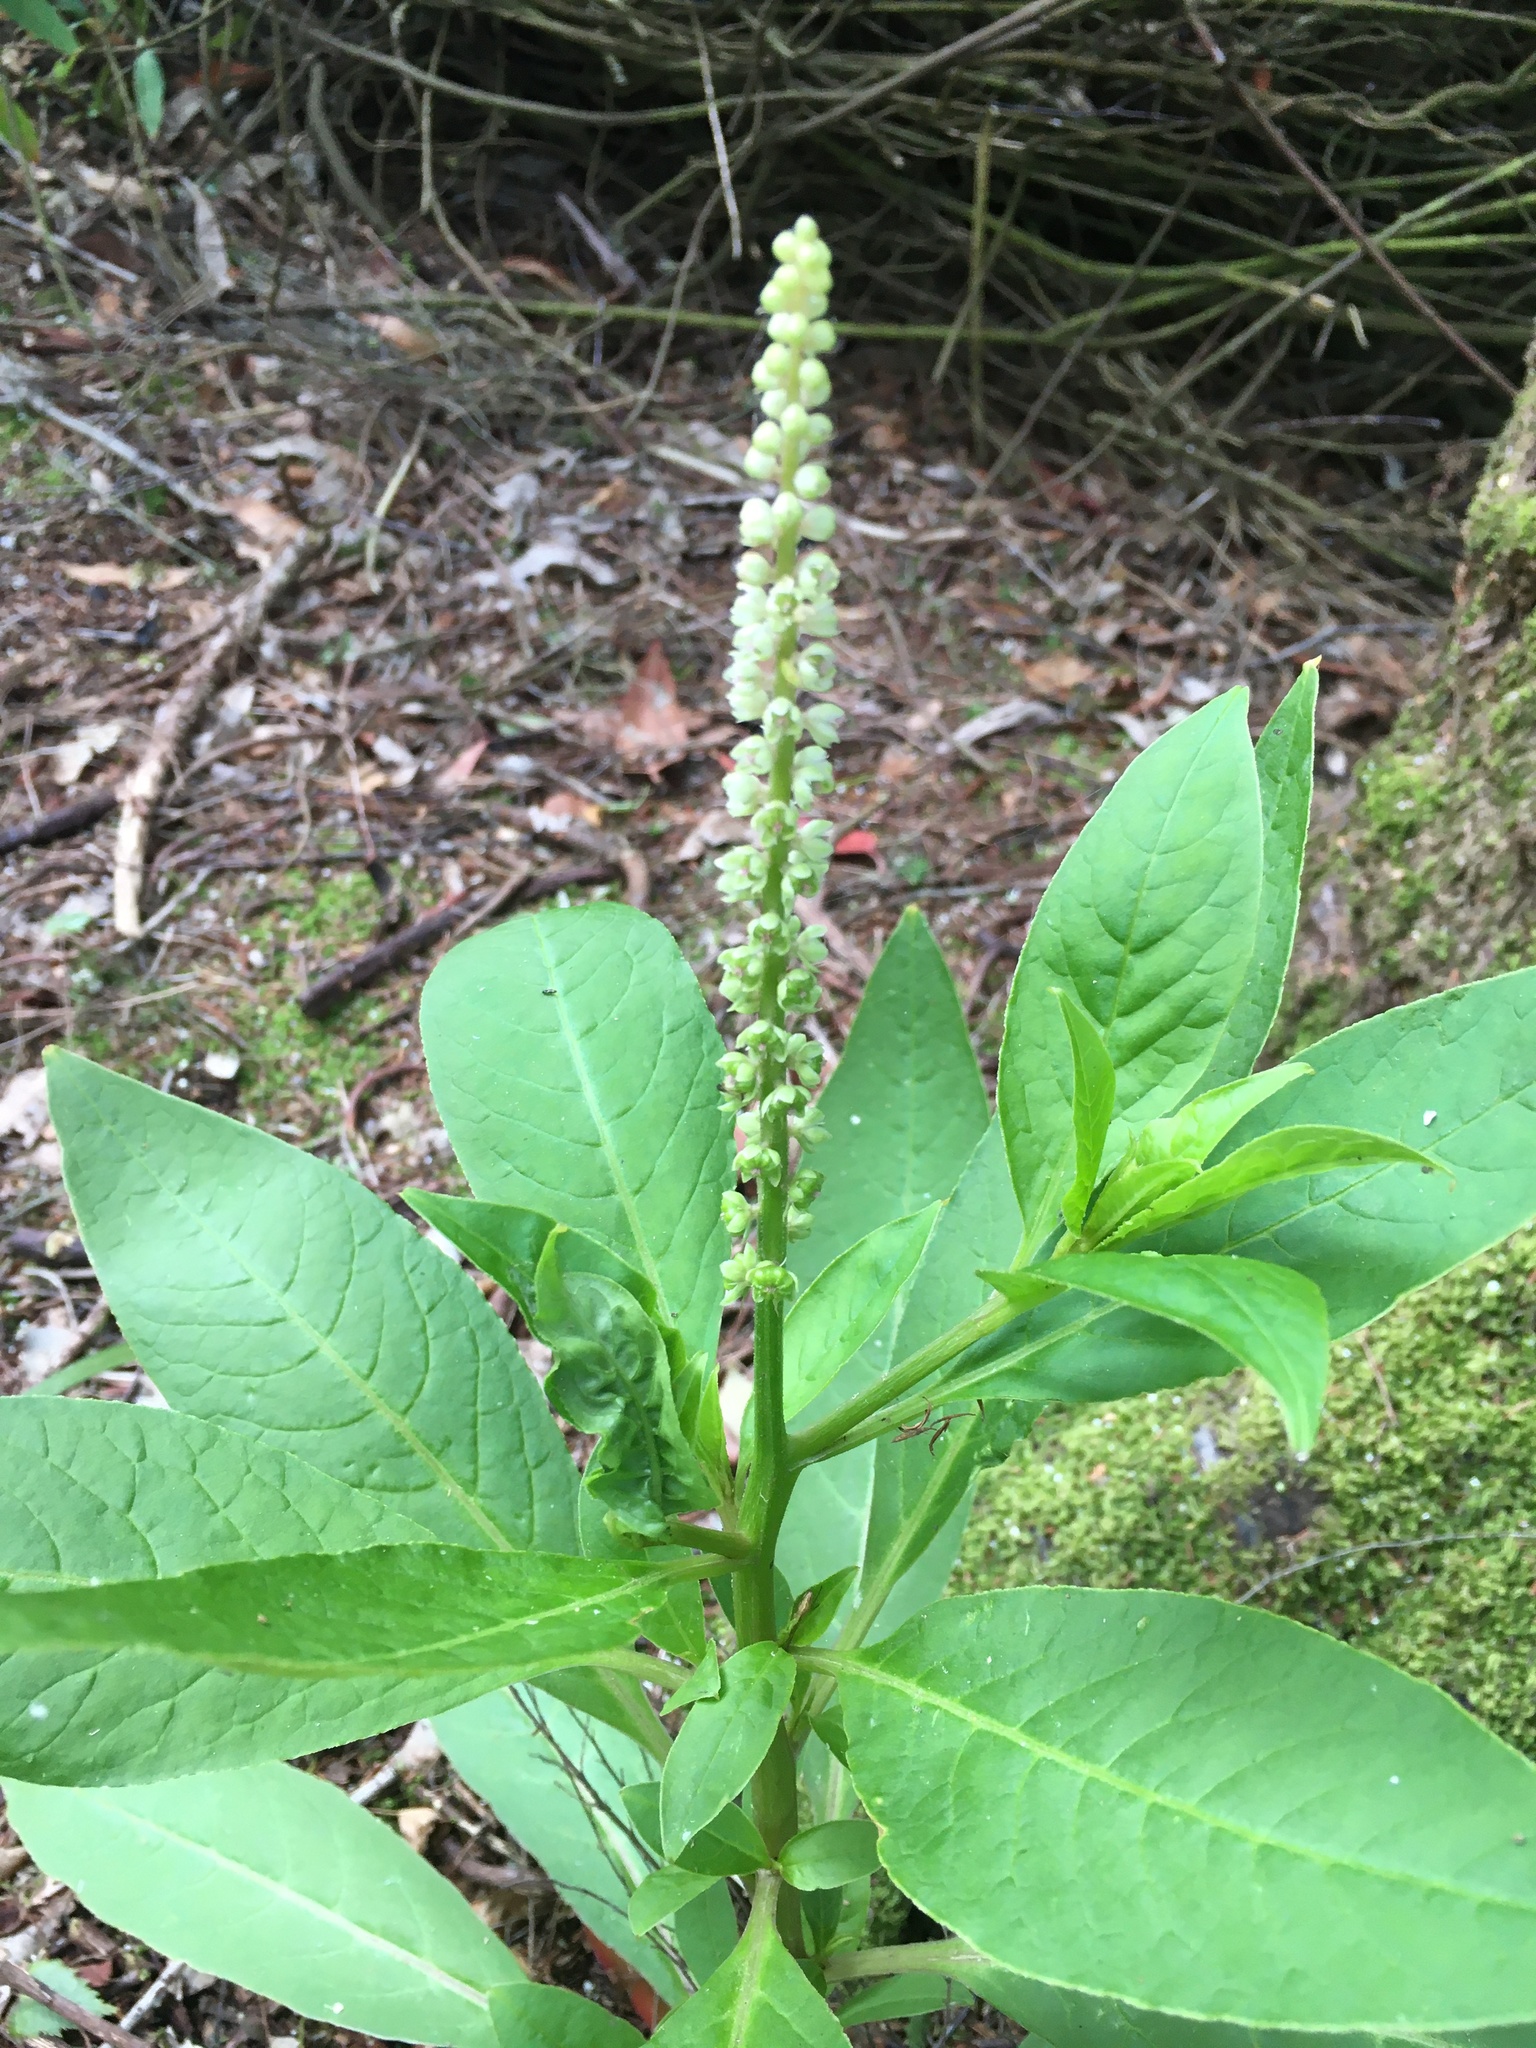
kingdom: Plantae
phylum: Tracheophyta
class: Magnoliopsida
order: Caryophyllales
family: Phytolaccaceae
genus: Phytolacca
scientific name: Phytolacca icosandra
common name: Button pokeweed
